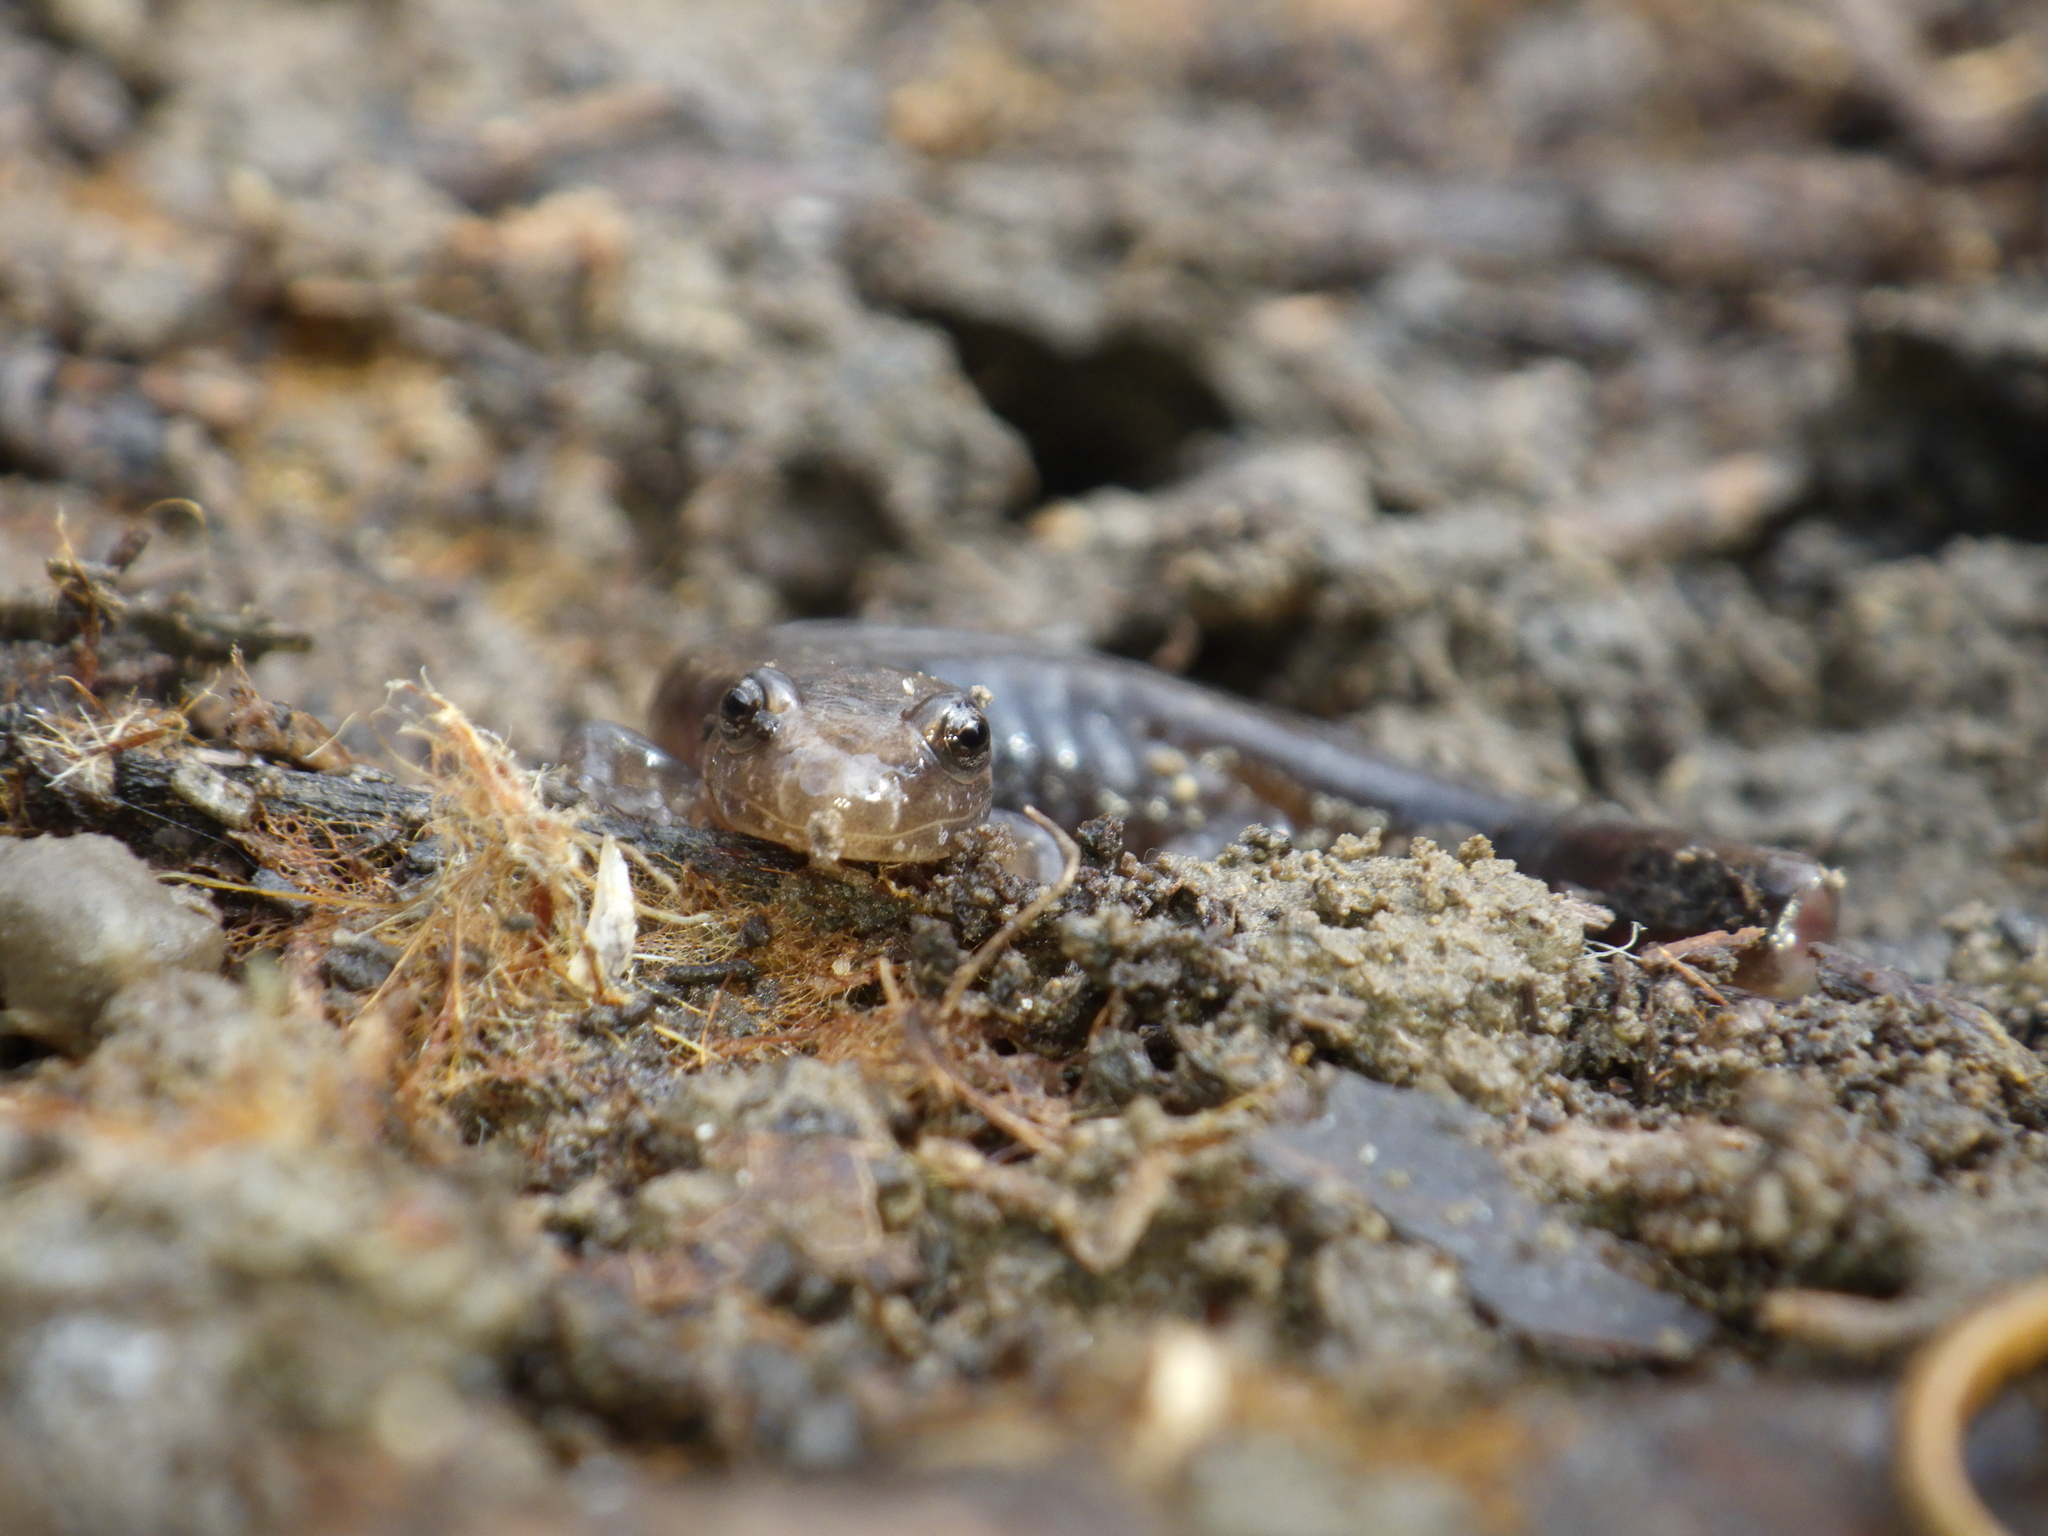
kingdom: Animalia
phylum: Chordata
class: Amphibia
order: Caudata
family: Plethodontidae
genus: Desmognathus
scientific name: Desmognathus ochrophaeus
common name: Allegheny mountain dusky salamander
